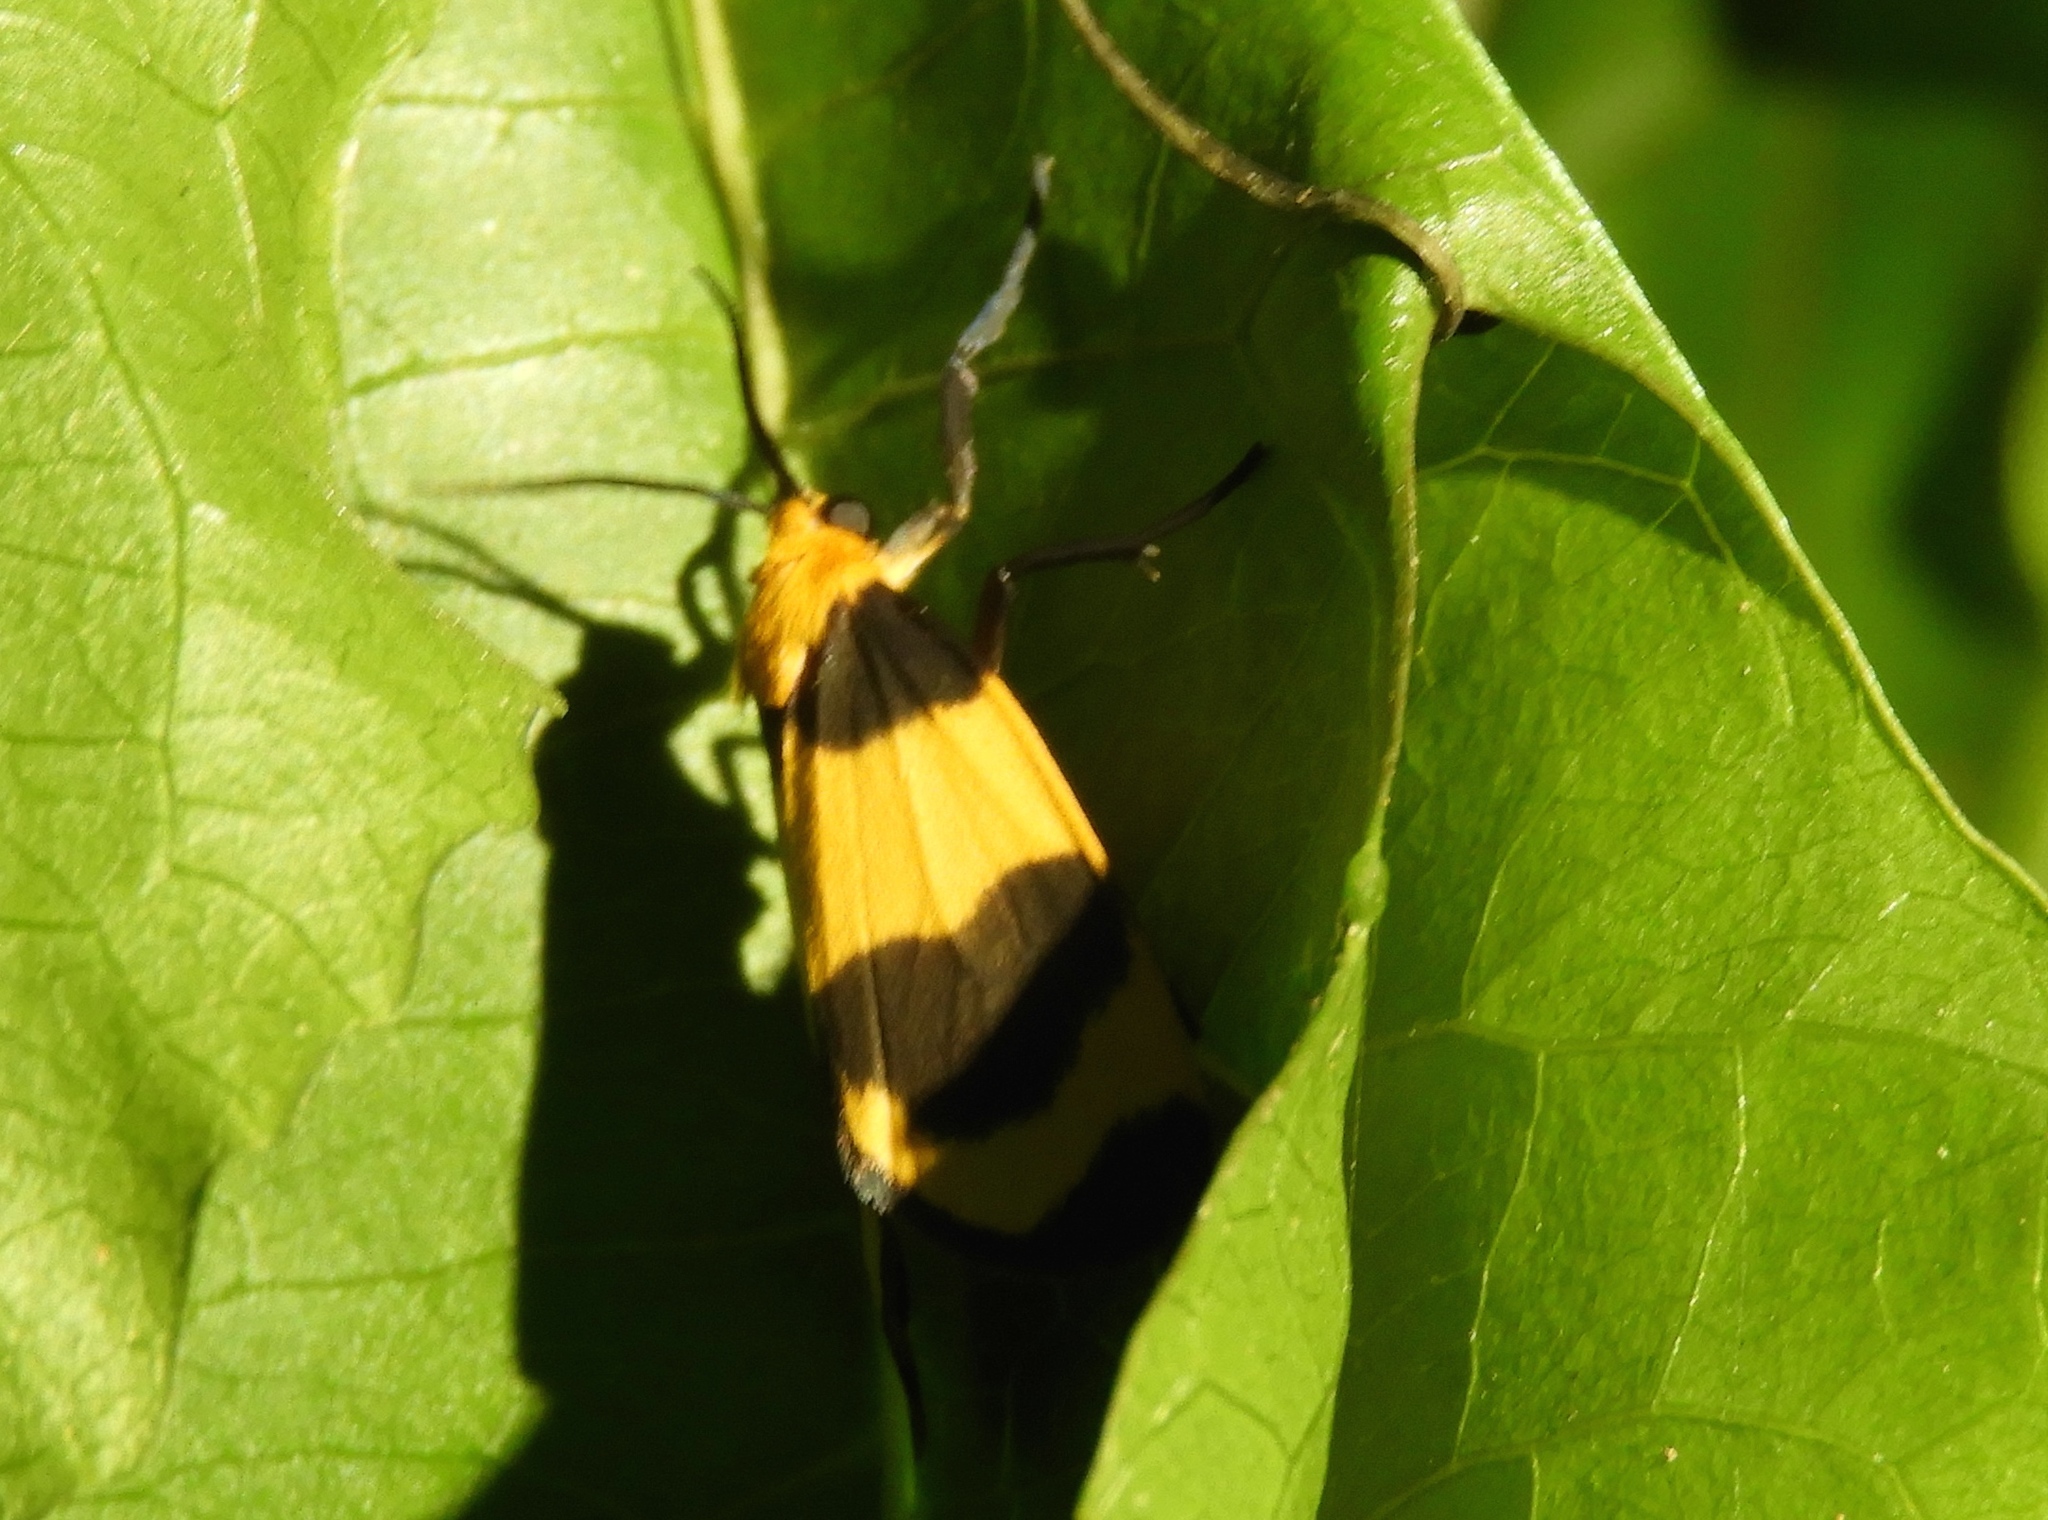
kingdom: Animalia
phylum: Arthropoda
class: Insecta
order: Lepidoptera
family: Erebidae
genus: Eudesmia
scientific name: Eudesmia
